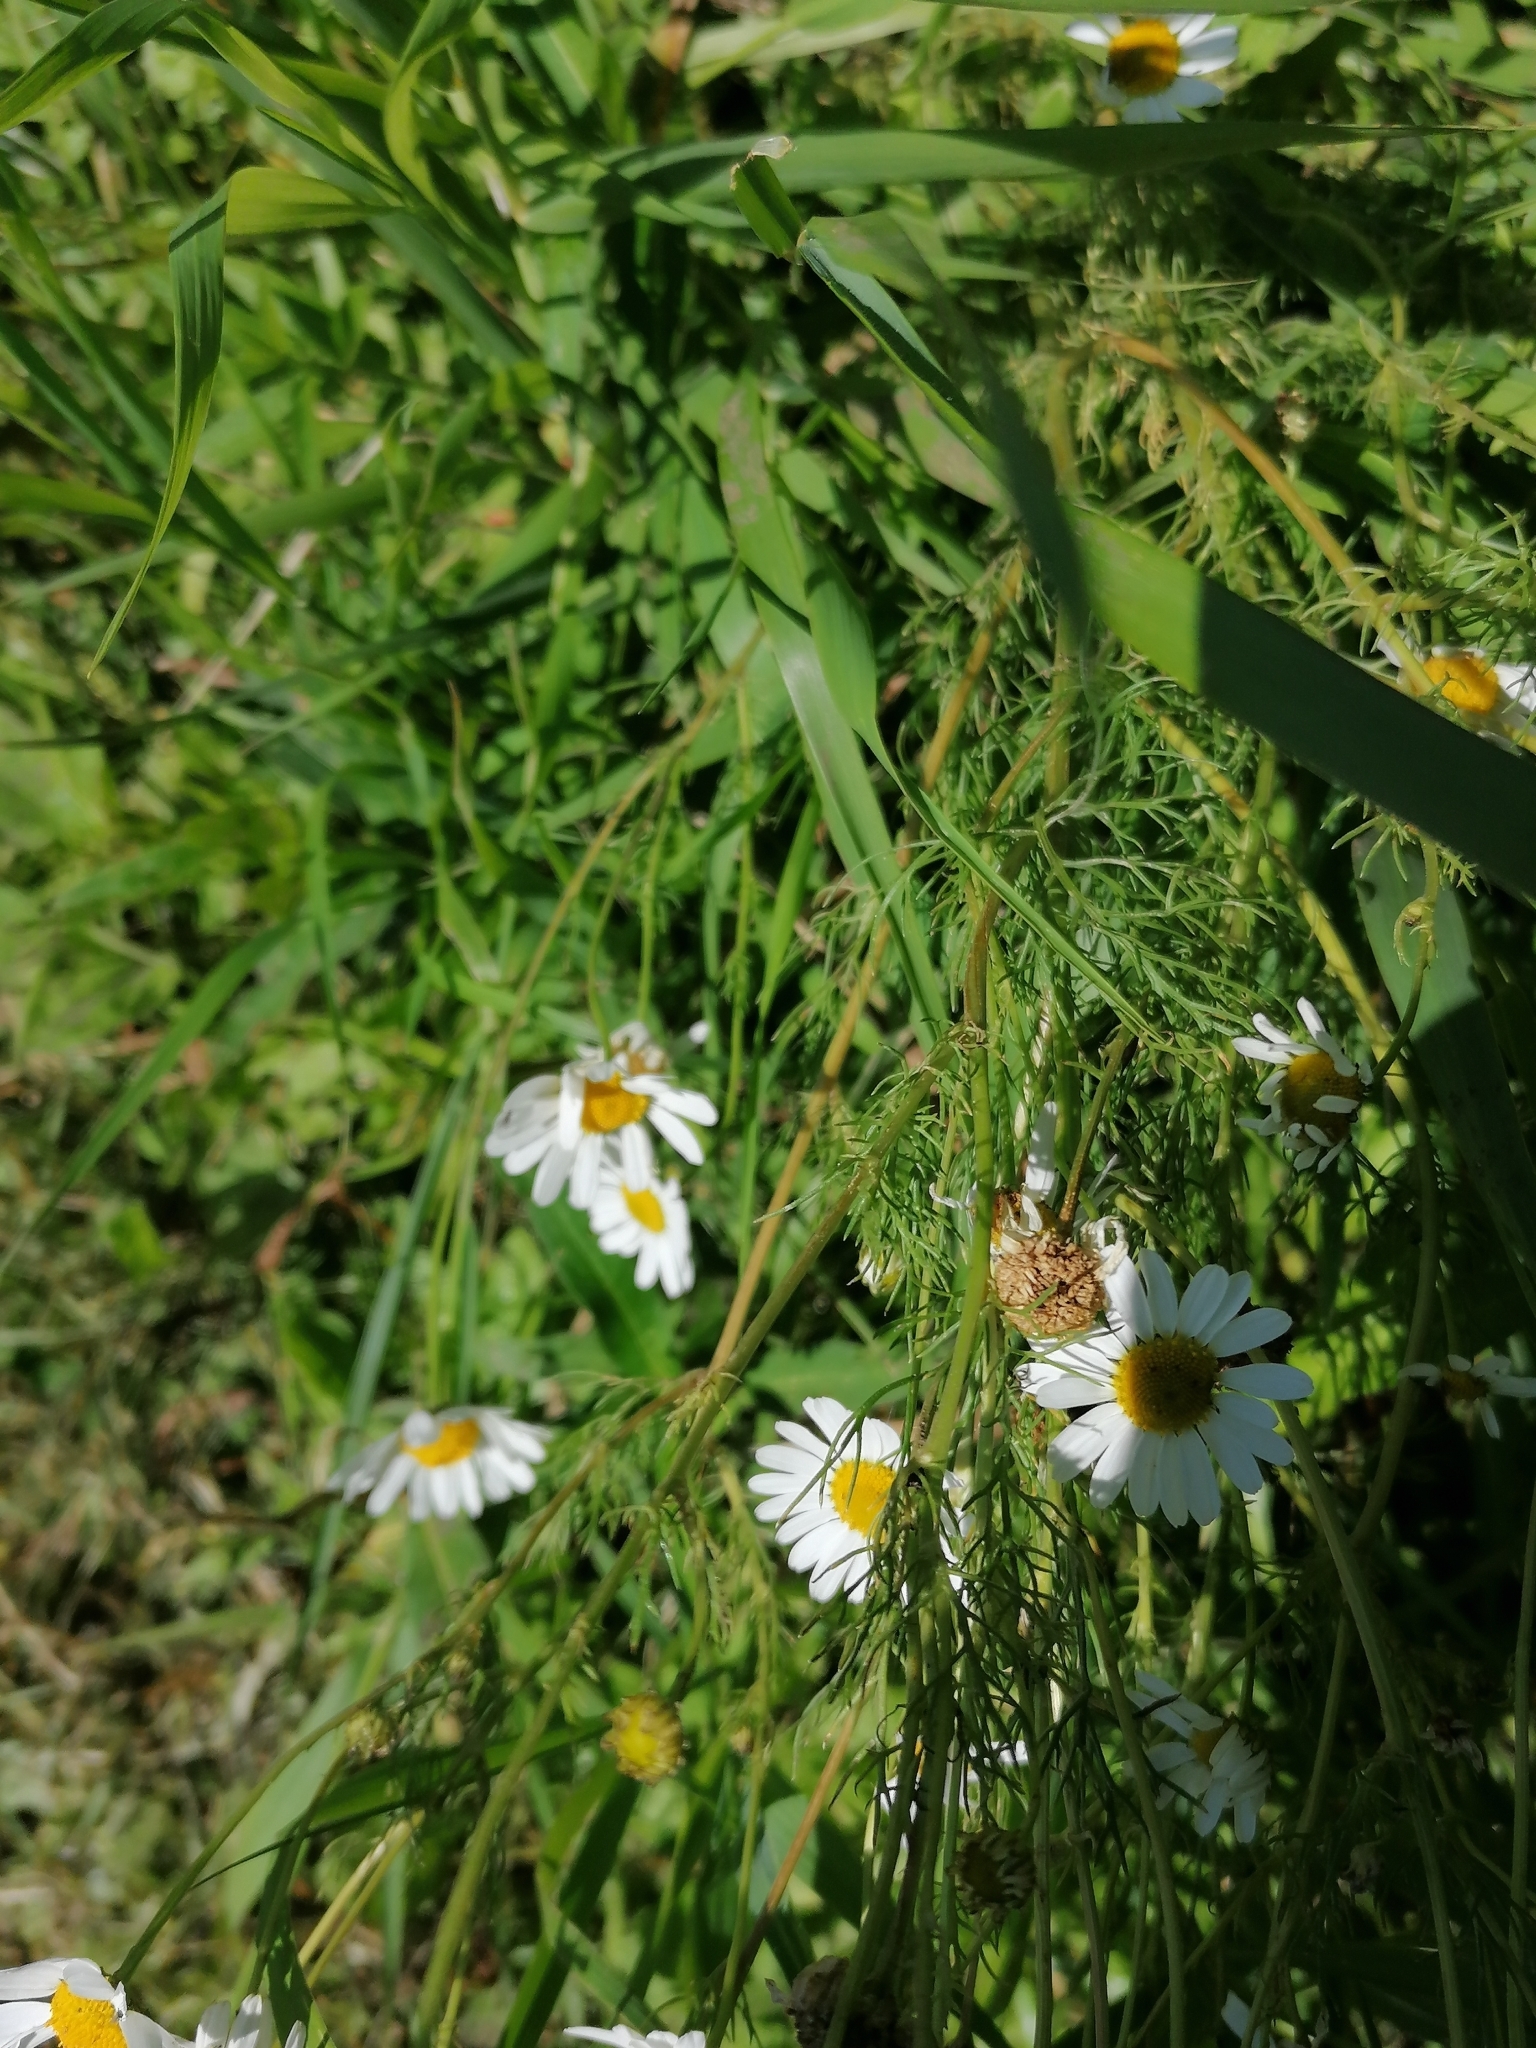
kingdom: Plantae
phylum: Tracheophyta
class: Magnoliopsida
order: Asterales
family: Asteraceae
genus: Tripleurospermum
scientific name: Tripleurospermum inodorum
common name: Scentless mayweed
